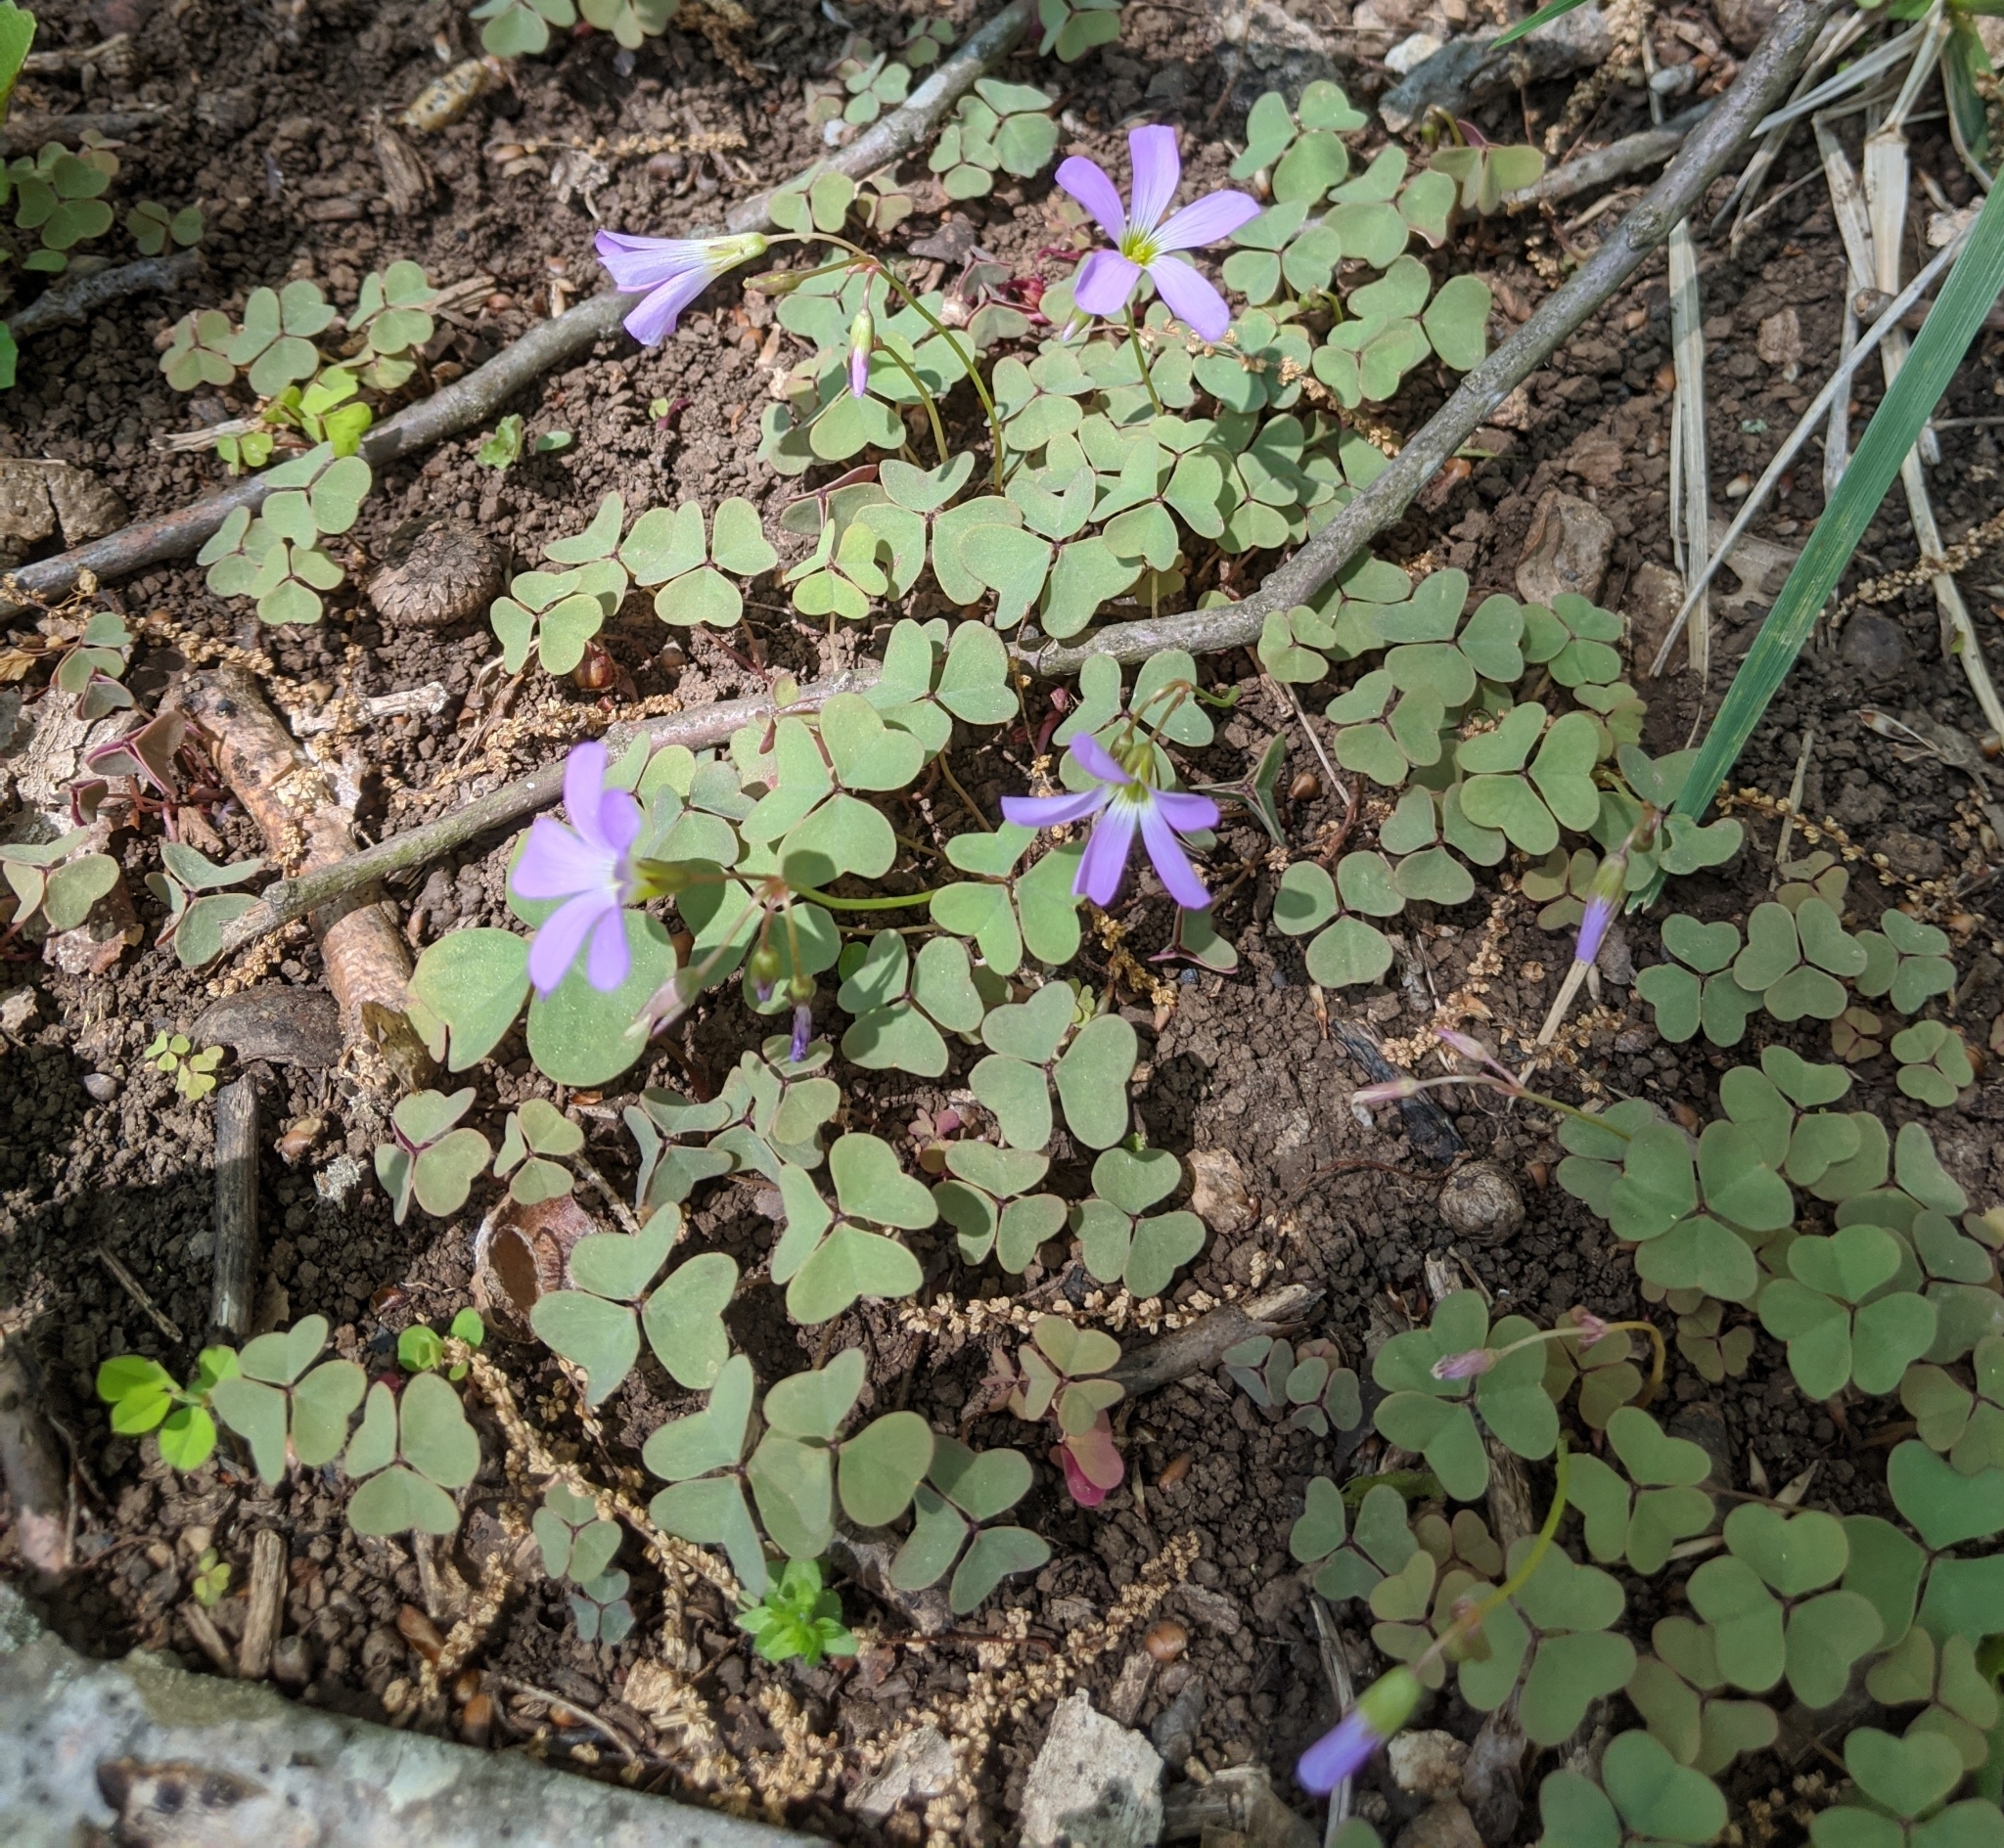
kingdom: Plantae
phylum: Tracheophyta
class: Magnoliopsida
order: Oxalidales
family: Oxalidaceae
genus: Oxalis
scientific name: Oxalis violacea
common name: Violet wood-sorrel
